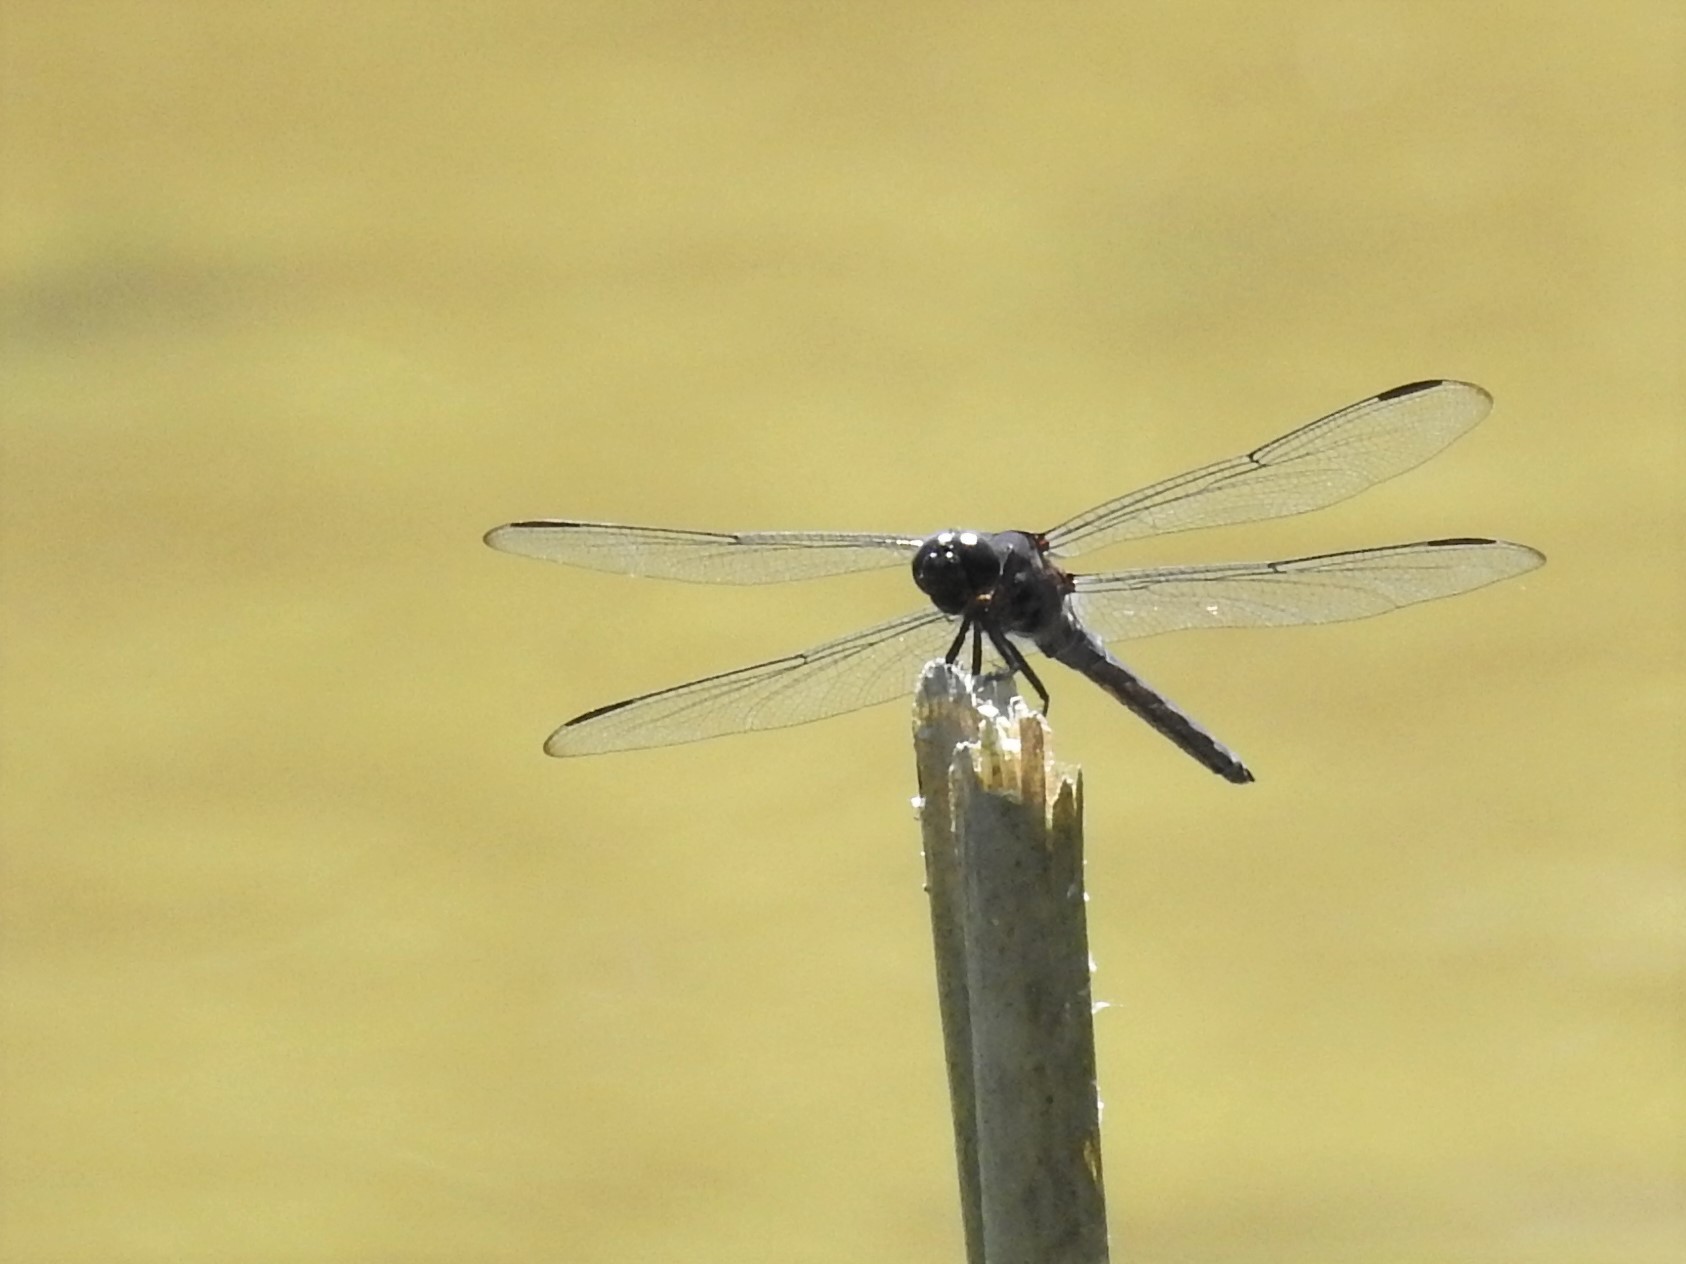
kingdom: Animalia
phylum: Arthropoda
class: Insecta
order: Odonata
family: Libellulidae
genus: Libellula
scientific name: Libellula incesta
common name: Slaty skimmer
